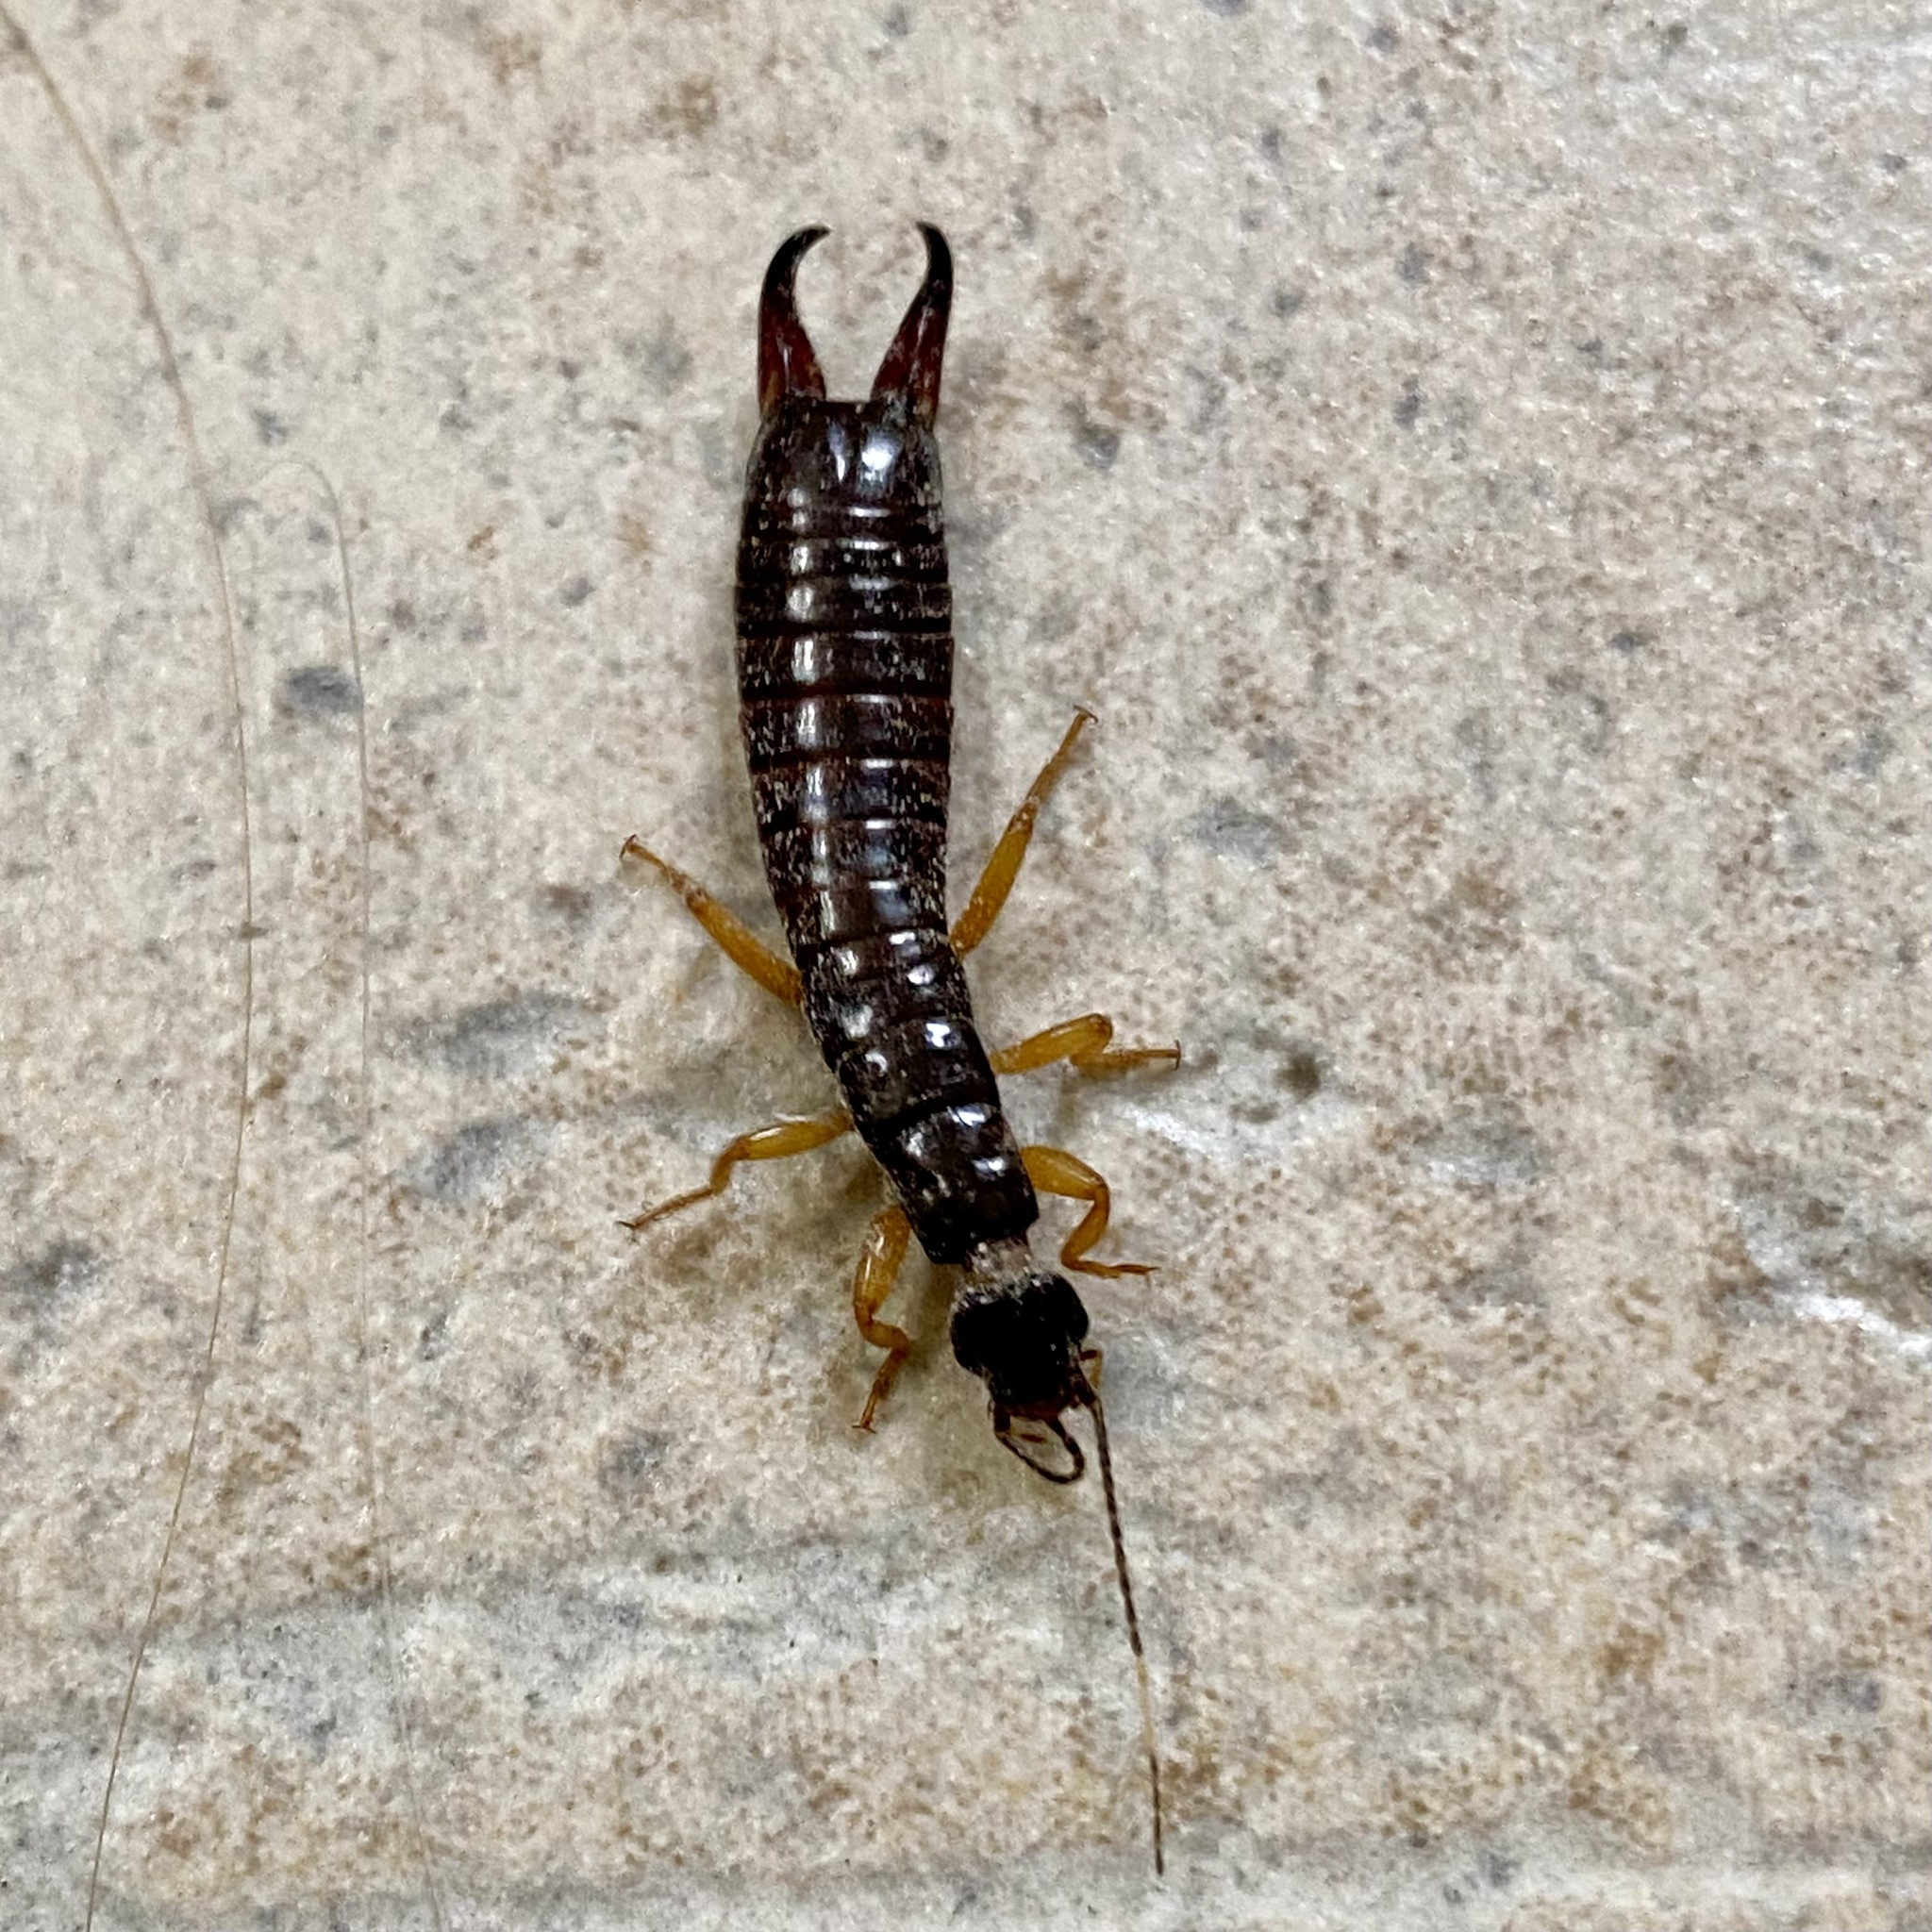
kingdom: Animalia
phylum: Arthropoda
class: Insecta
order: Dermaptera
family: Anisolabididae
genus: Euborellia
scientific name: Euborellia arcanum
